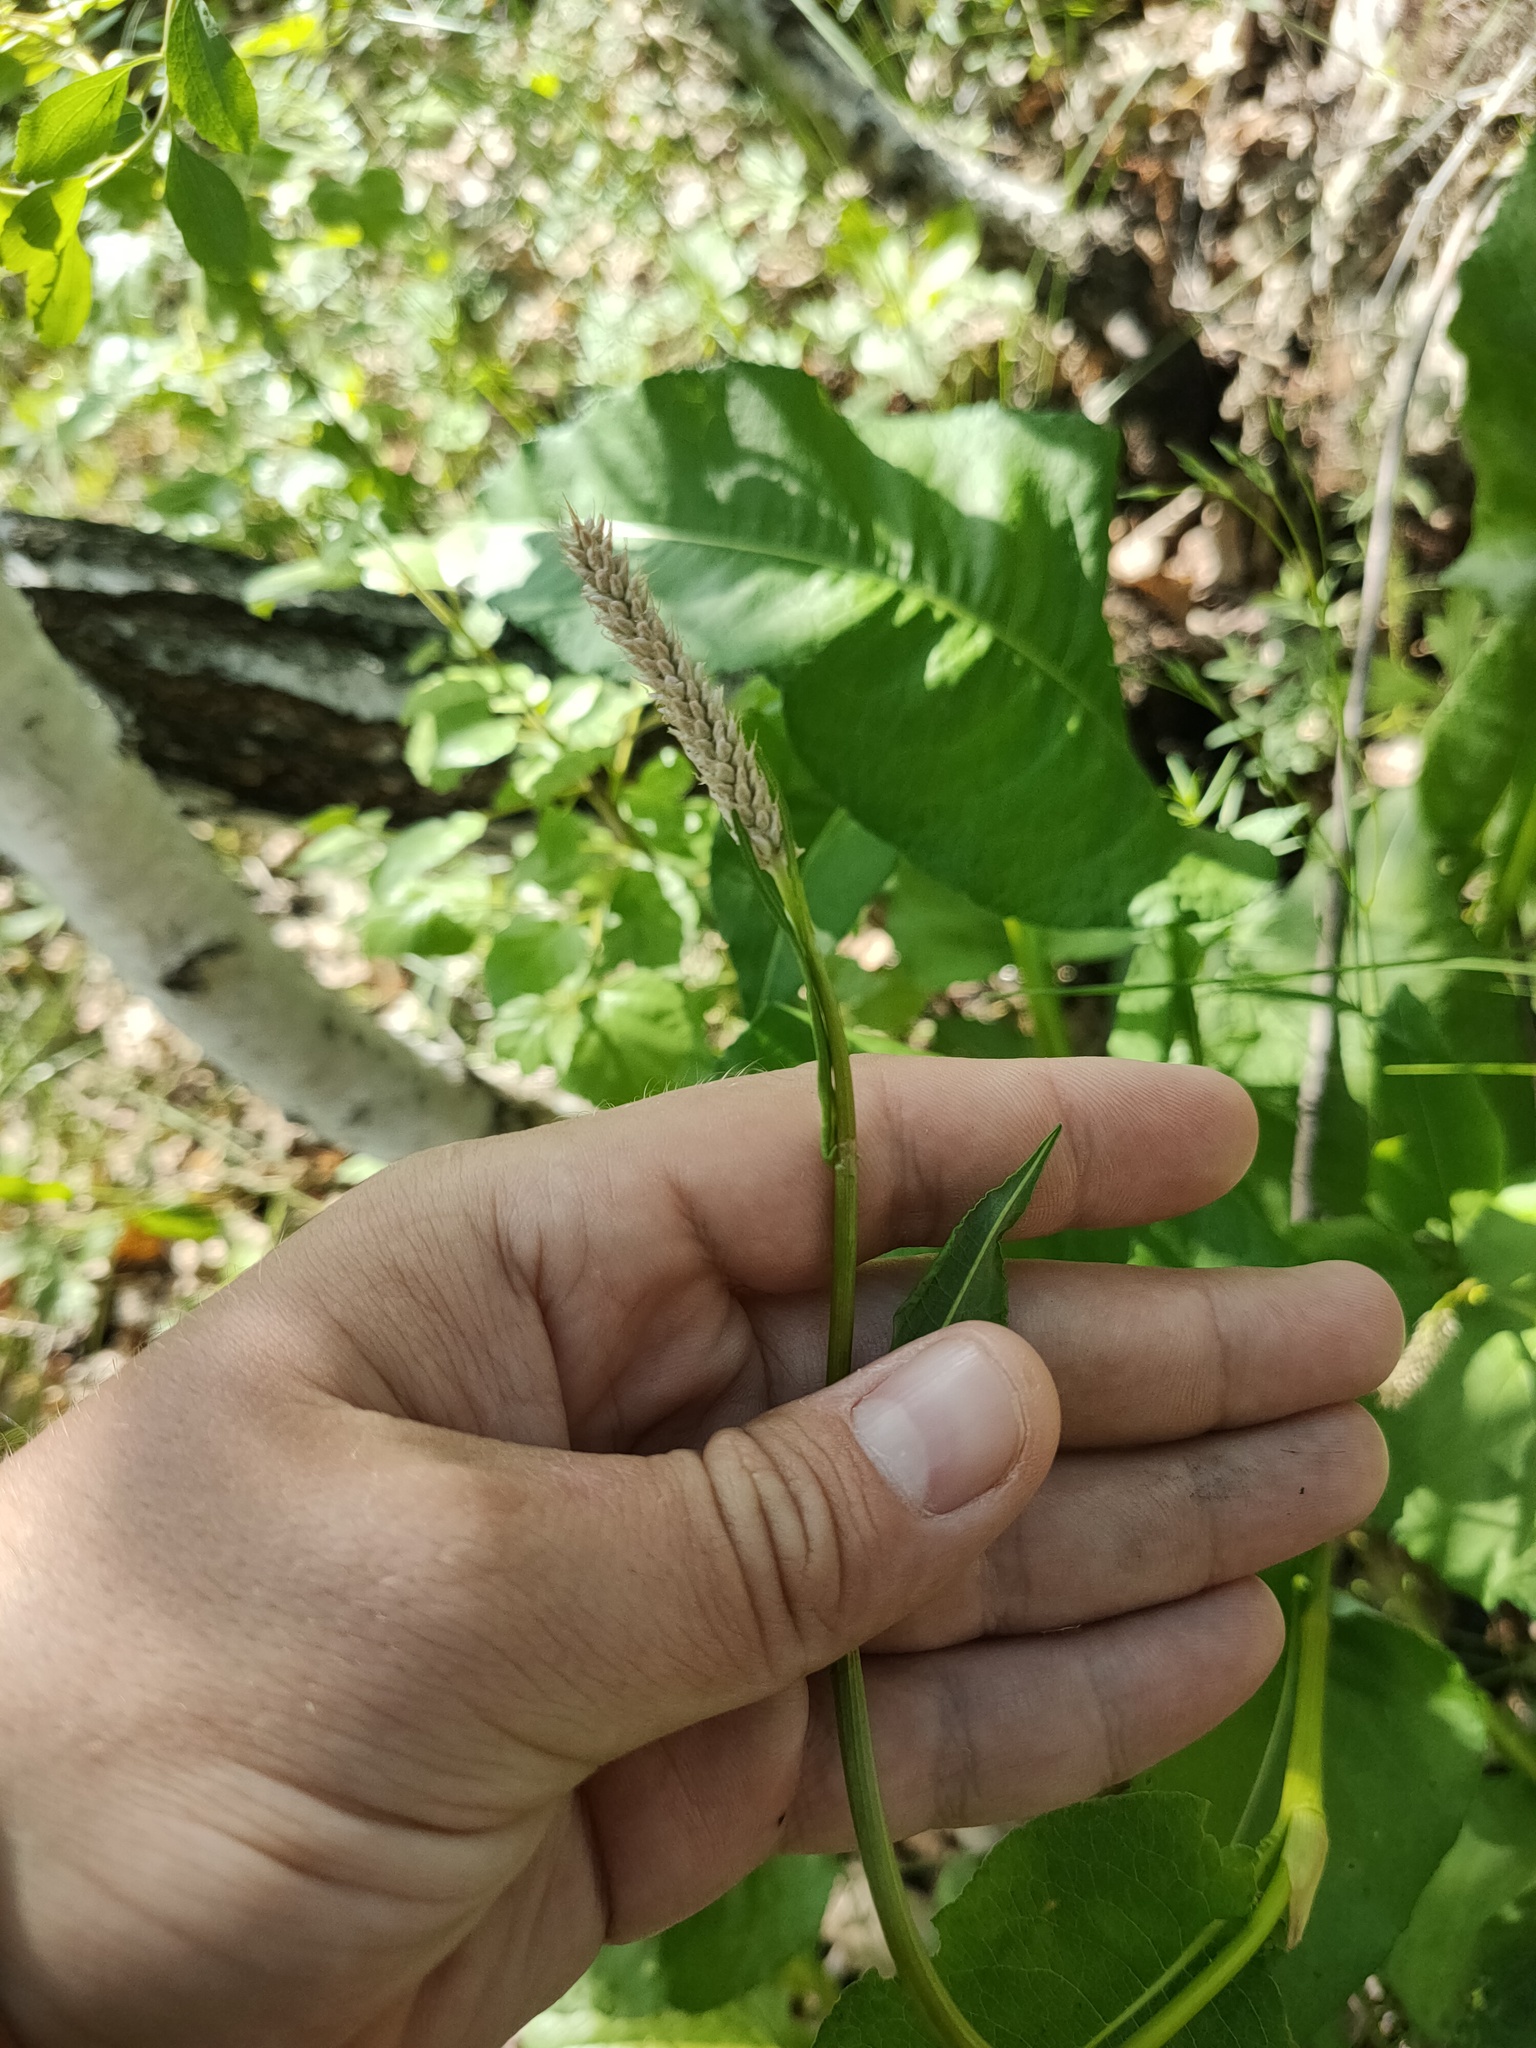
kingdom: Plantae
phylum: Tracheophyta
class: Magnoliopsida
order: Caryophyllales
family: Polygonaceae
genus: Bistorta
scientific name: Bistorta officinalis
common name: Common bistort
